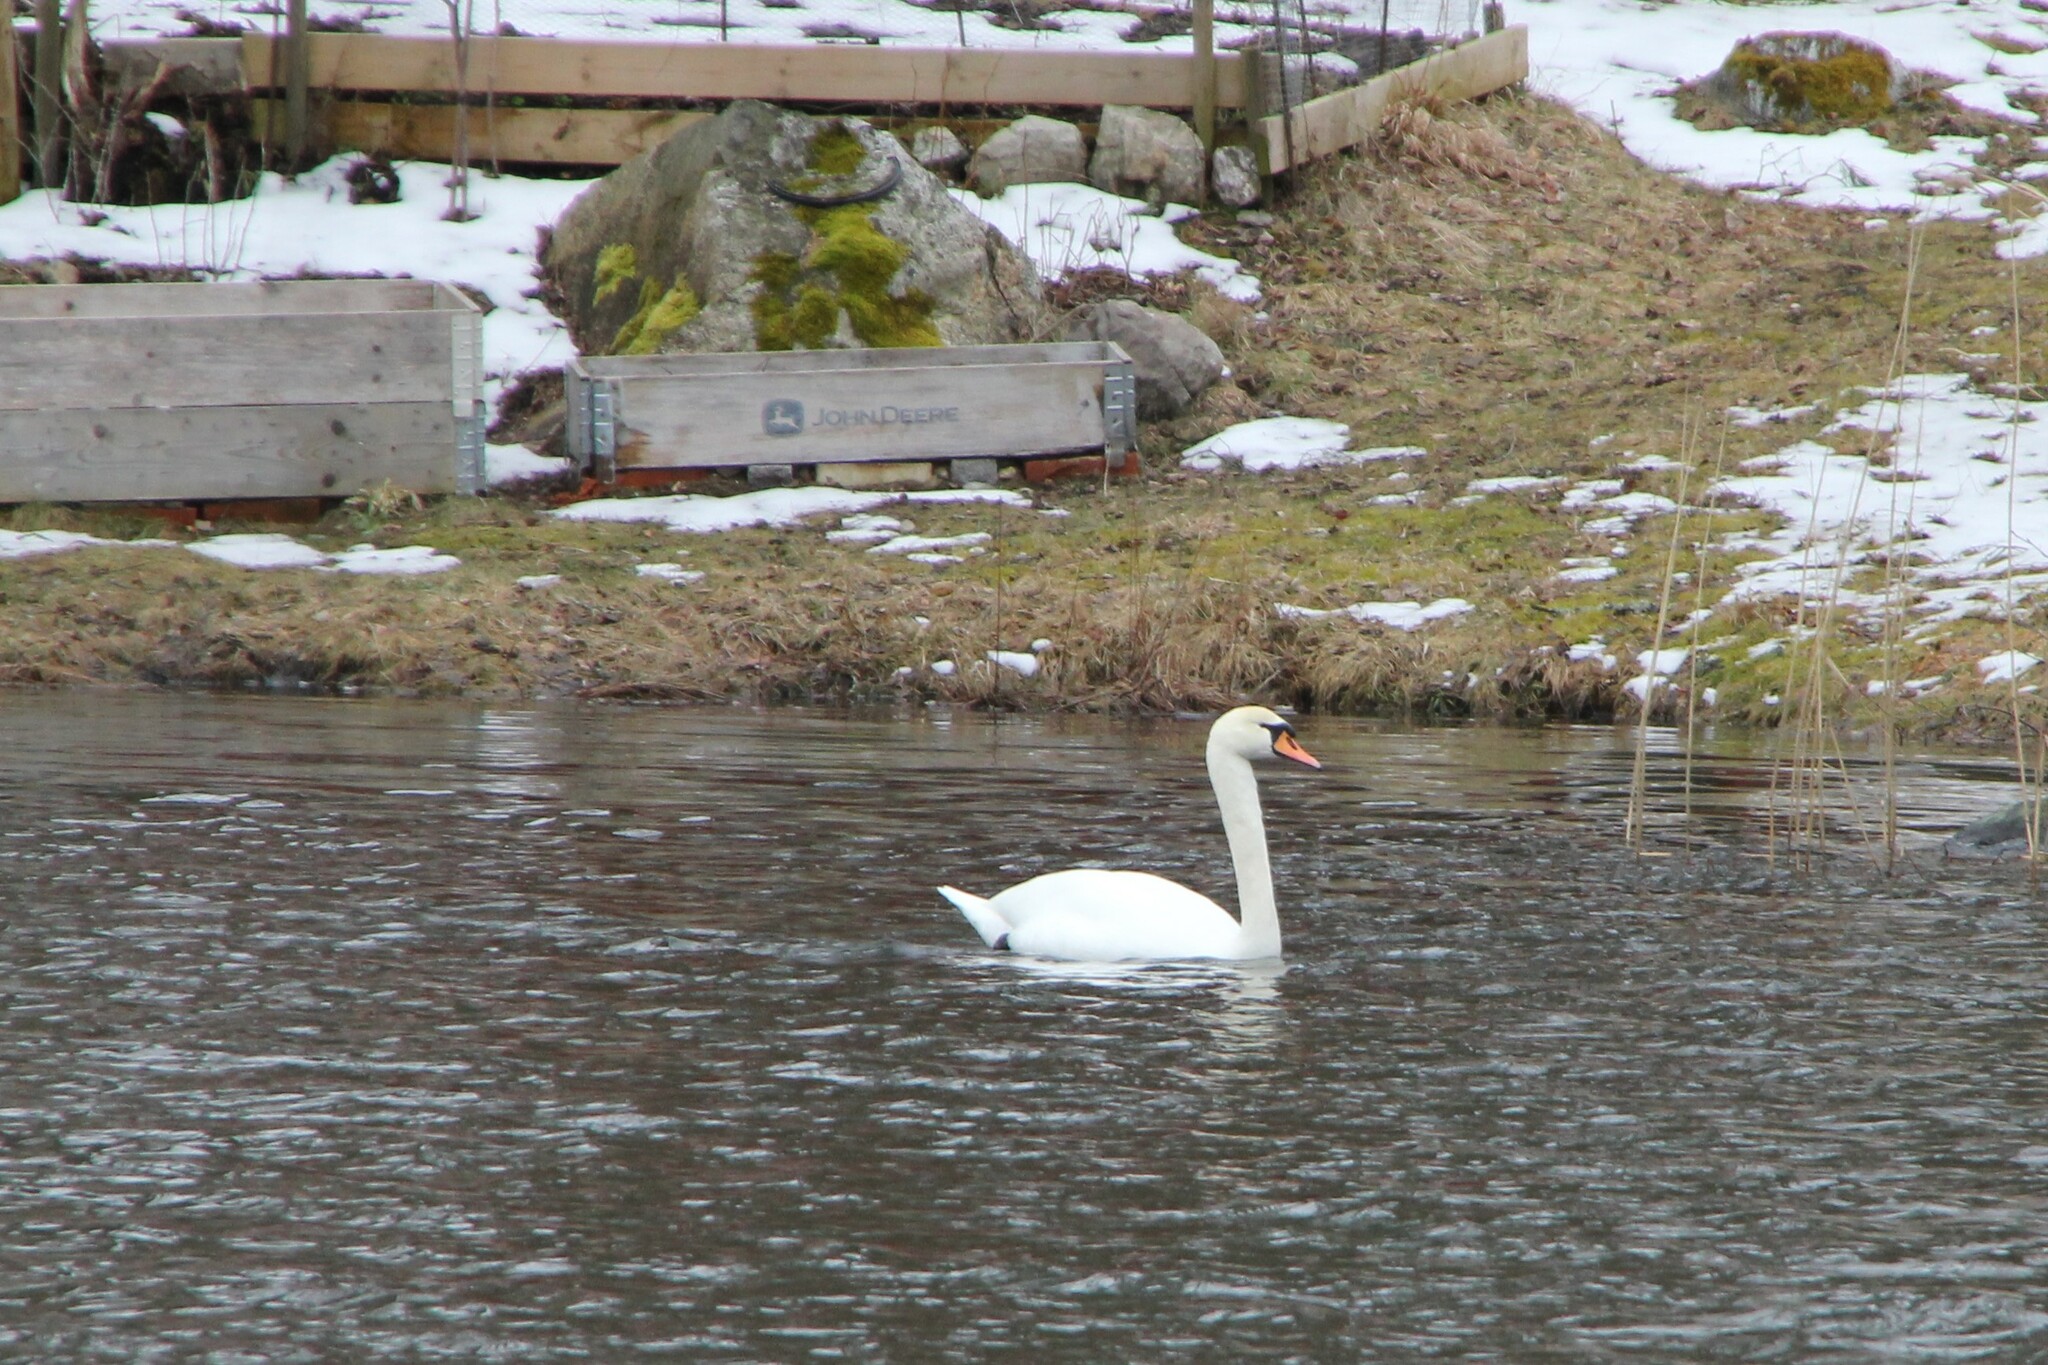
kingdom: Animalia
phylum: Chordata
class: Aves
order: Anseriformes
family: Anatidae
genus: Cygnus
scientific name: Cygnus olor
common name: Mute swan
